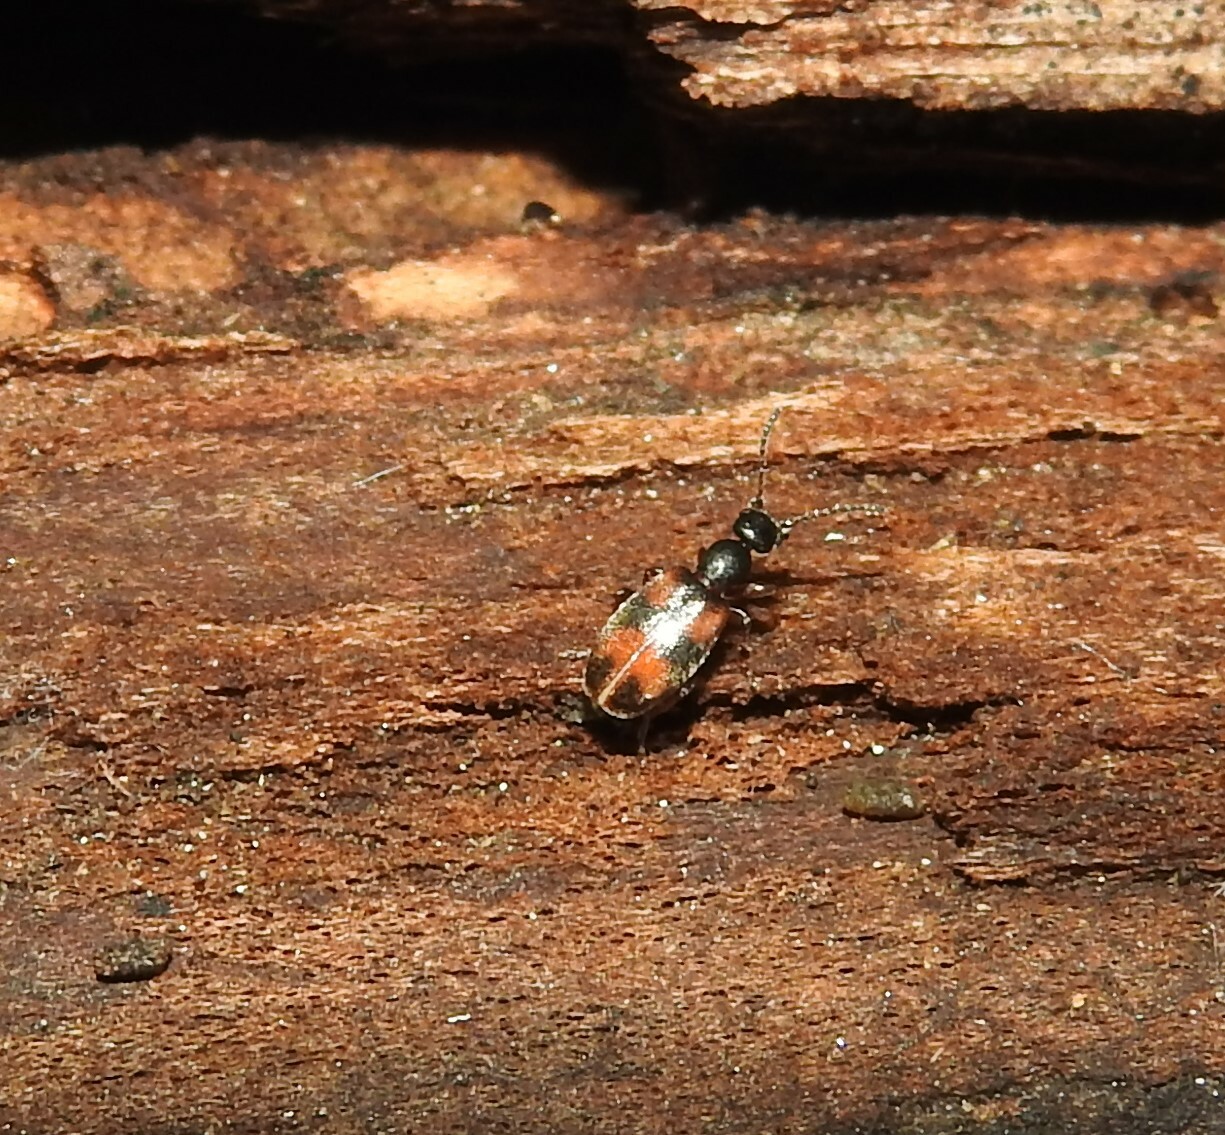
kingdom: Animalia
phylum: Arthropoda
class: Insecta
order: Coleoptera
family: Anthicidae
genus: Anthicus
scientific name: Anthicus antherinus
